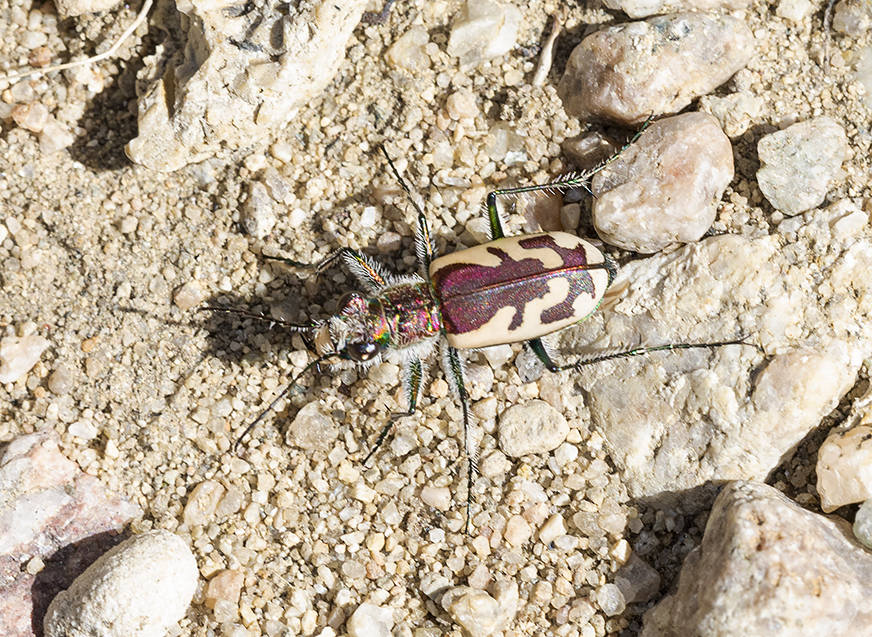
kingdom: Animalia
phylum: Arthropoda
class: Insecta
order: Coleoptera
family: Carabidae
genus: Cicindela
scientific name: Cicindela lengi
